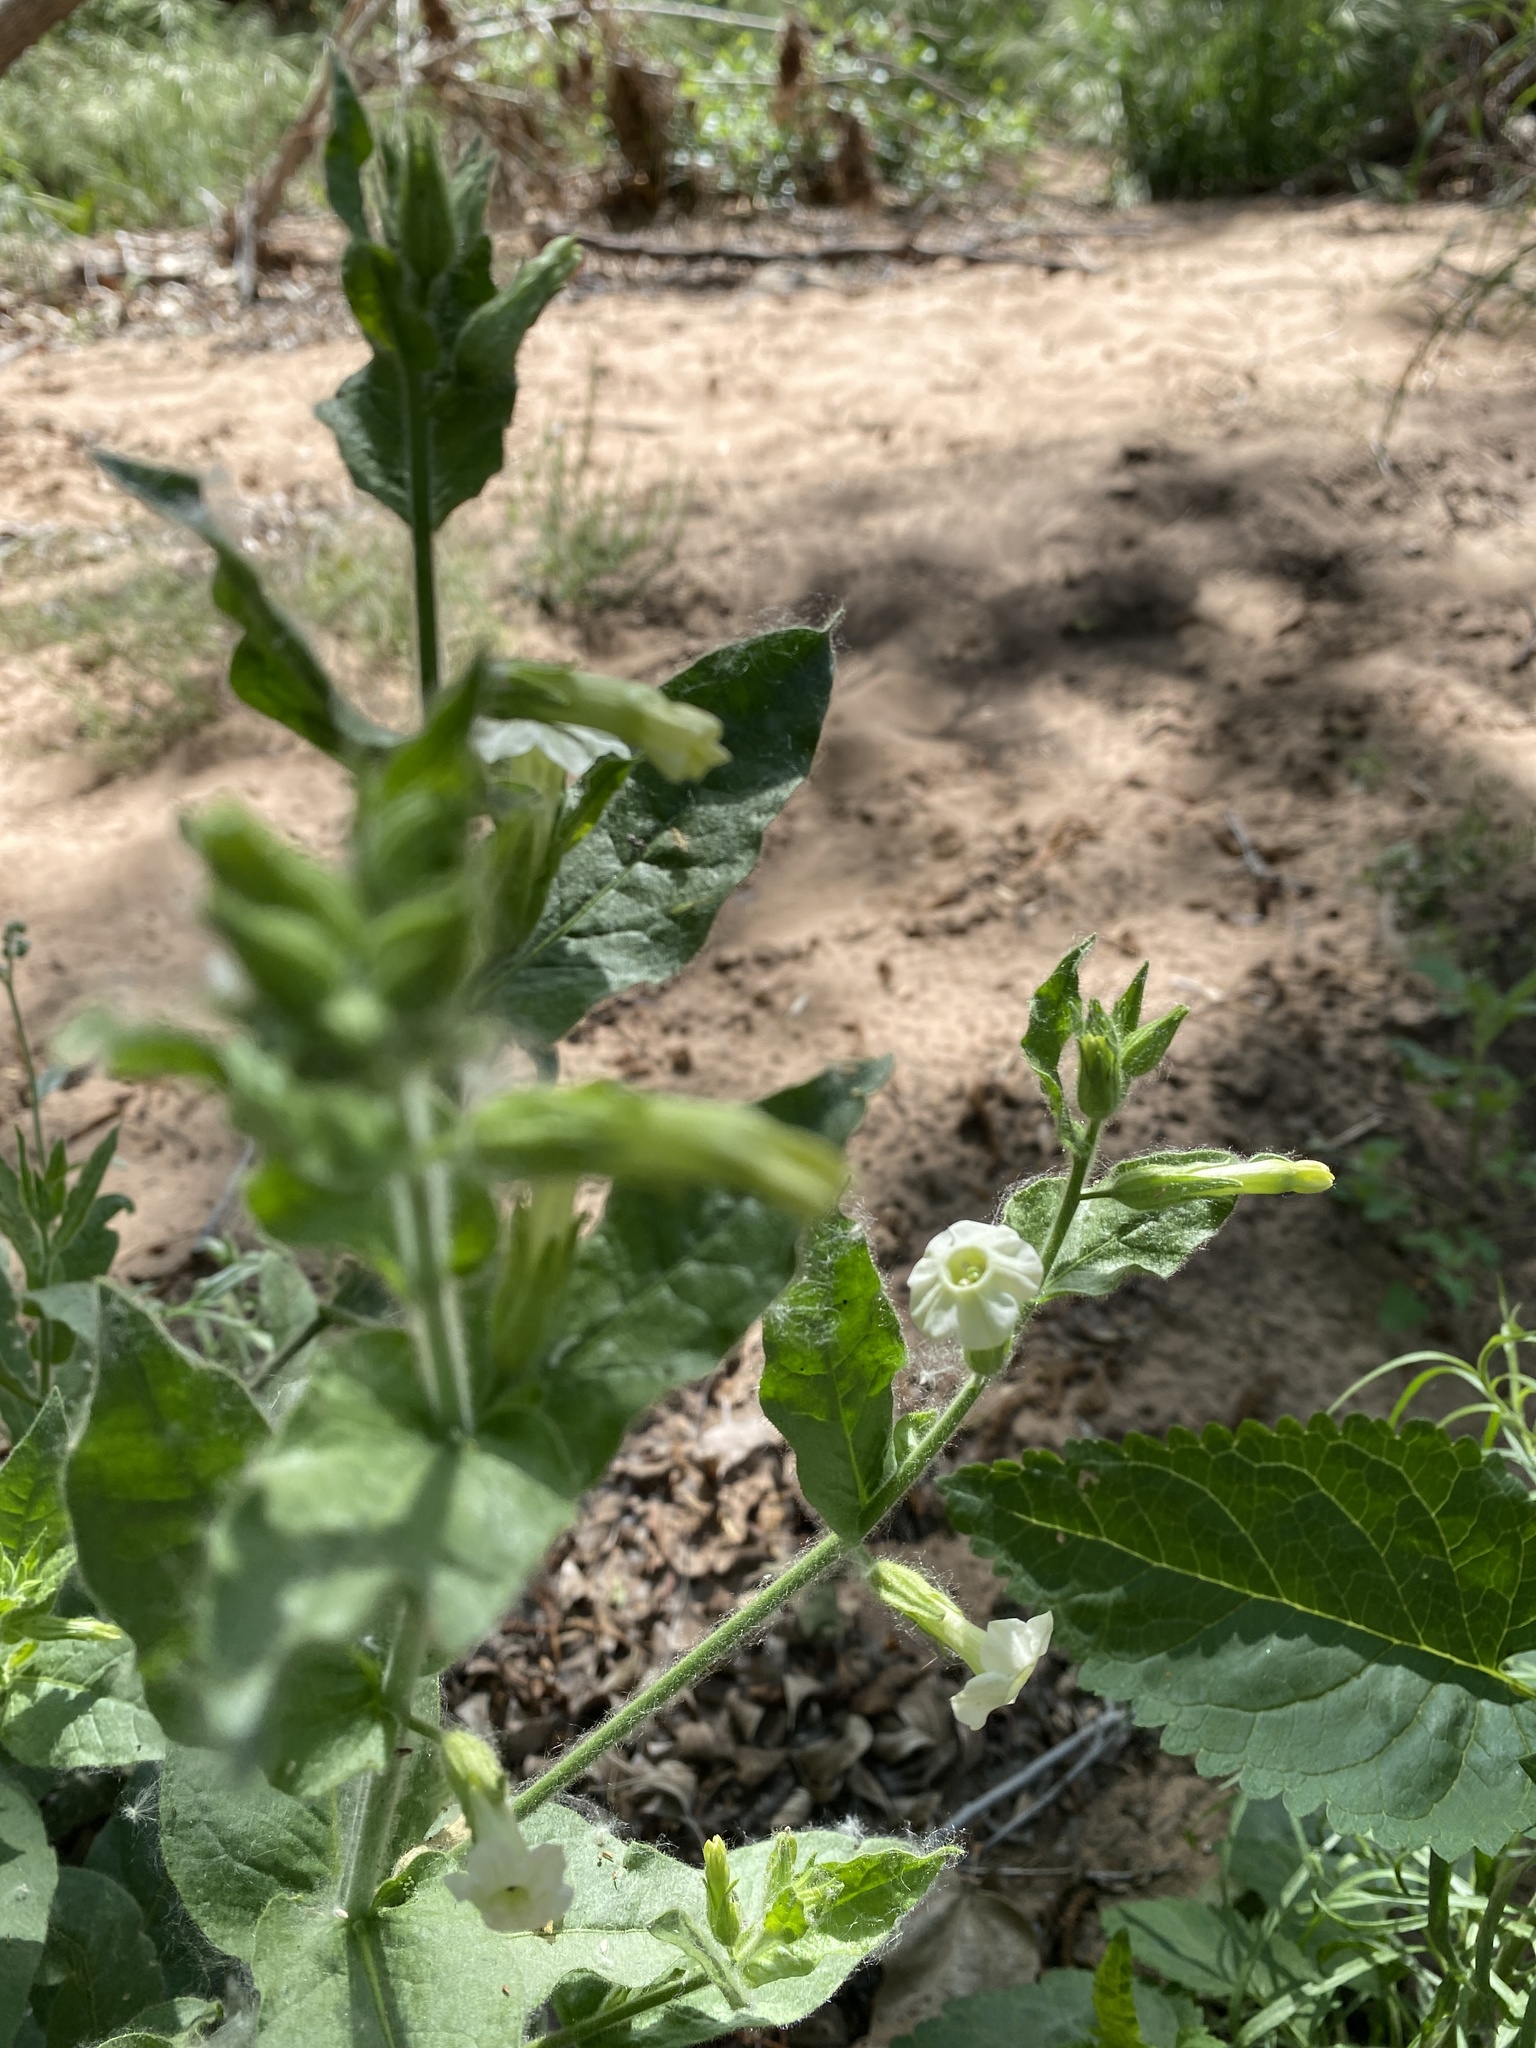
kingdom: Plantae
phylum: Tracheophyta
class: Magnoliopsida
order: Solanales
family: Solanaceae
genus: Nicotiana
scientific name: Nicotiana obtusifolia
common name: Desert tobacco
